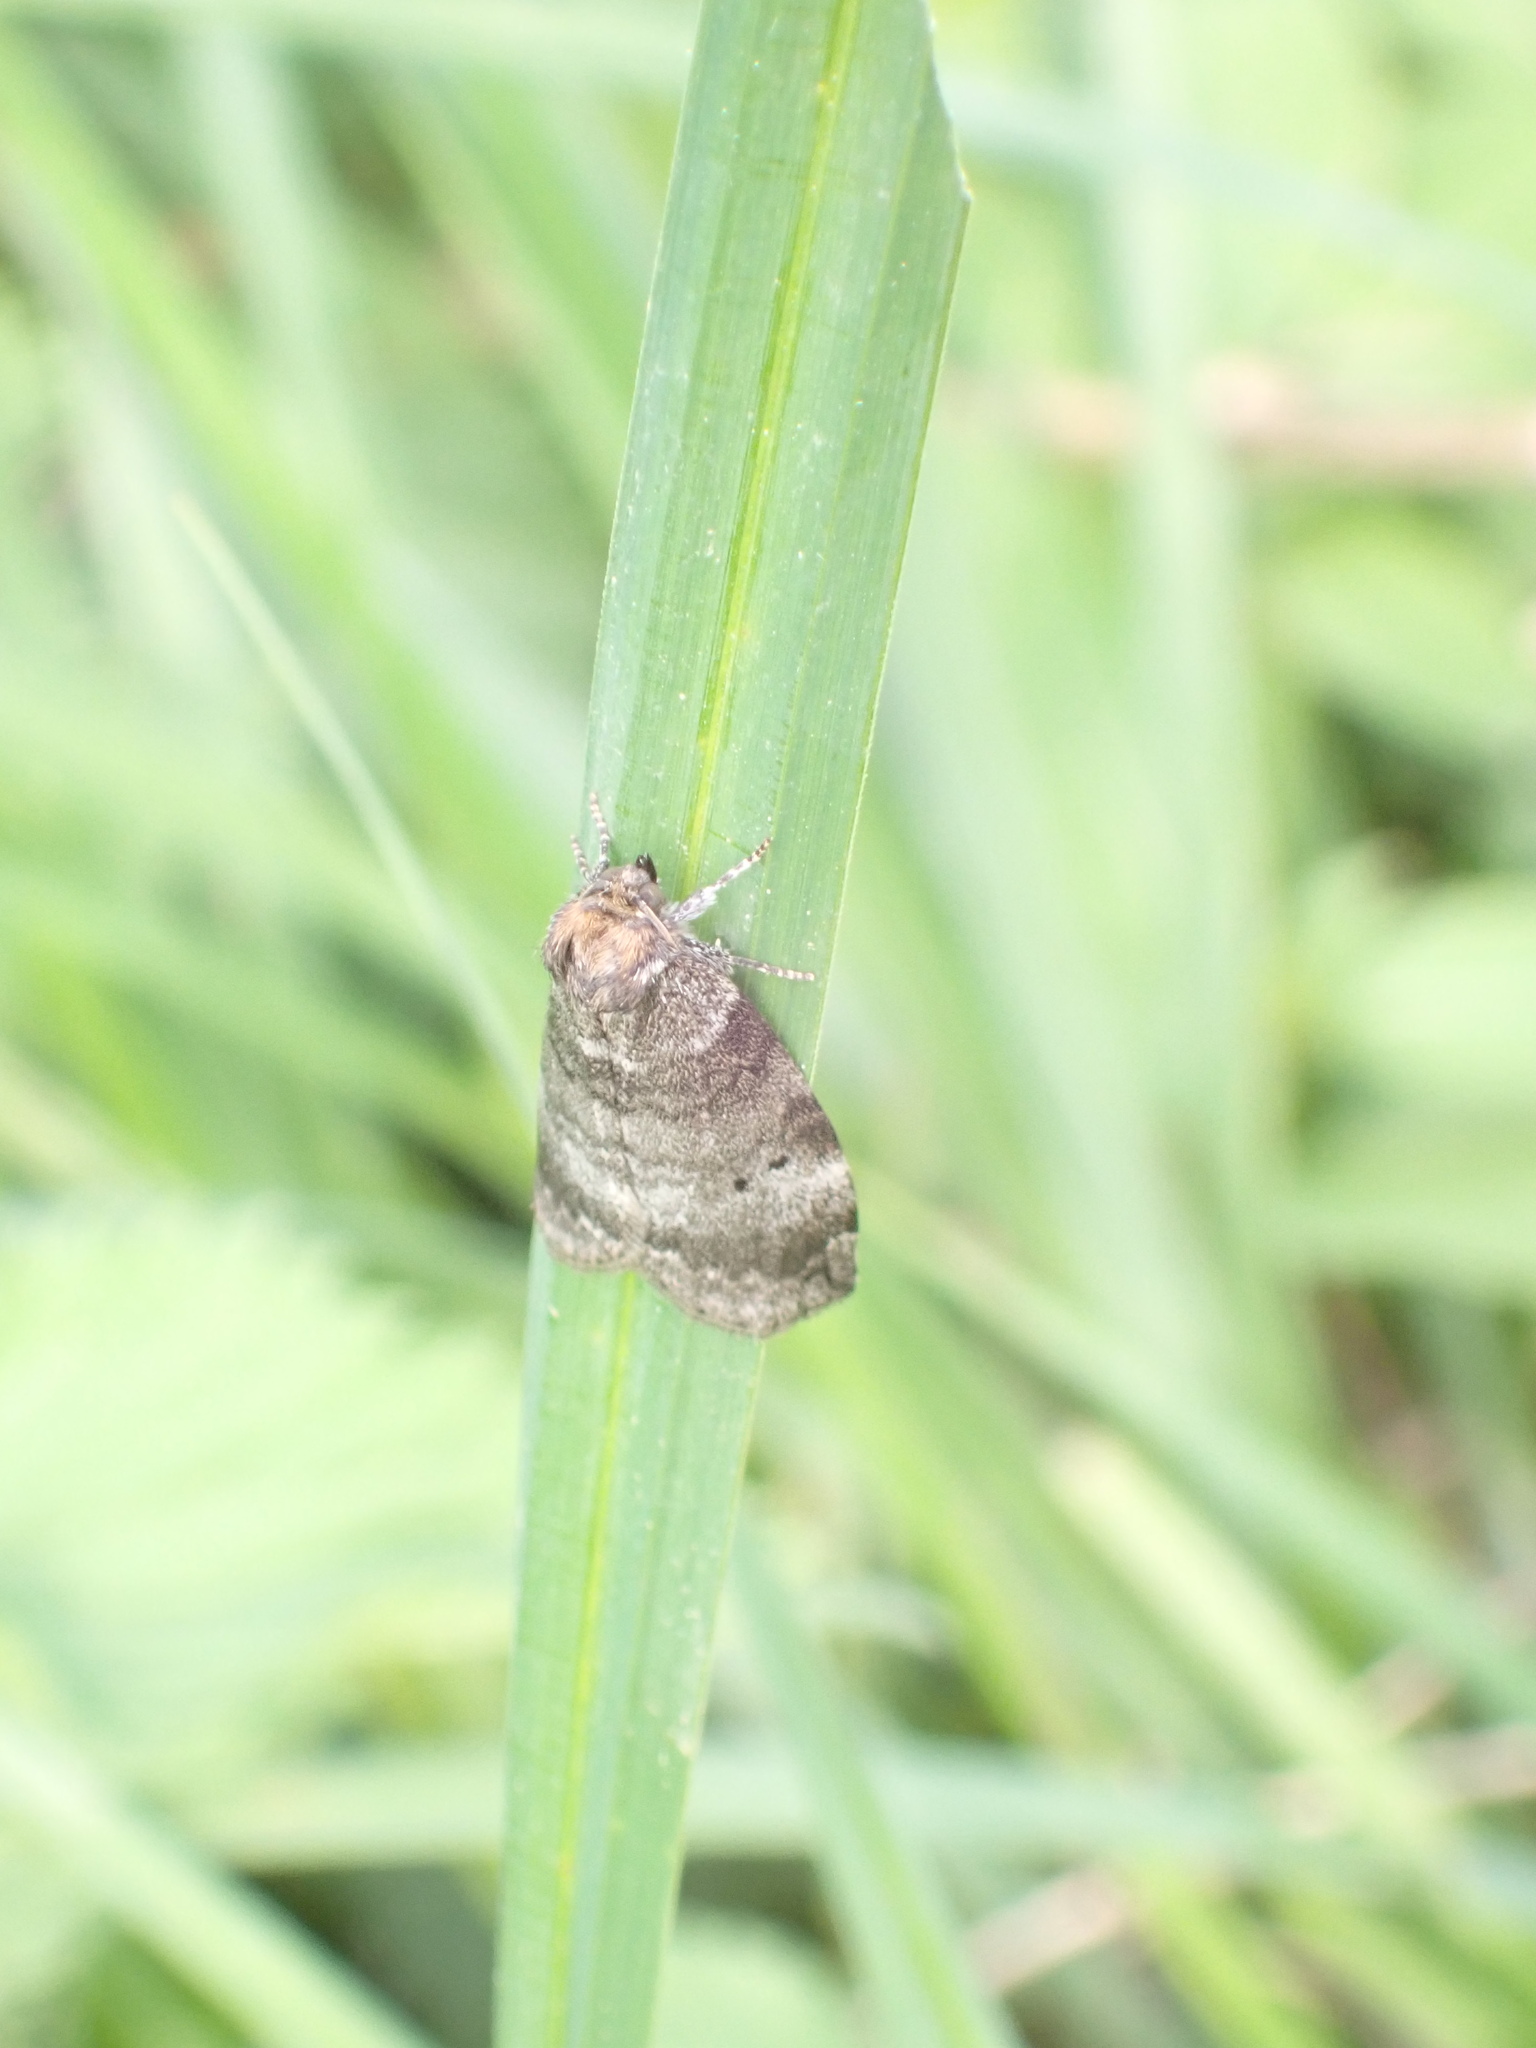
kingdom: Animalia
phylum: Arthropoda
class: Insecta
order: Lepidoptera
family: Drepanidae
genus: Ochropacha
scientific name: Ochropacha duplaris
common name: Common lutestring
